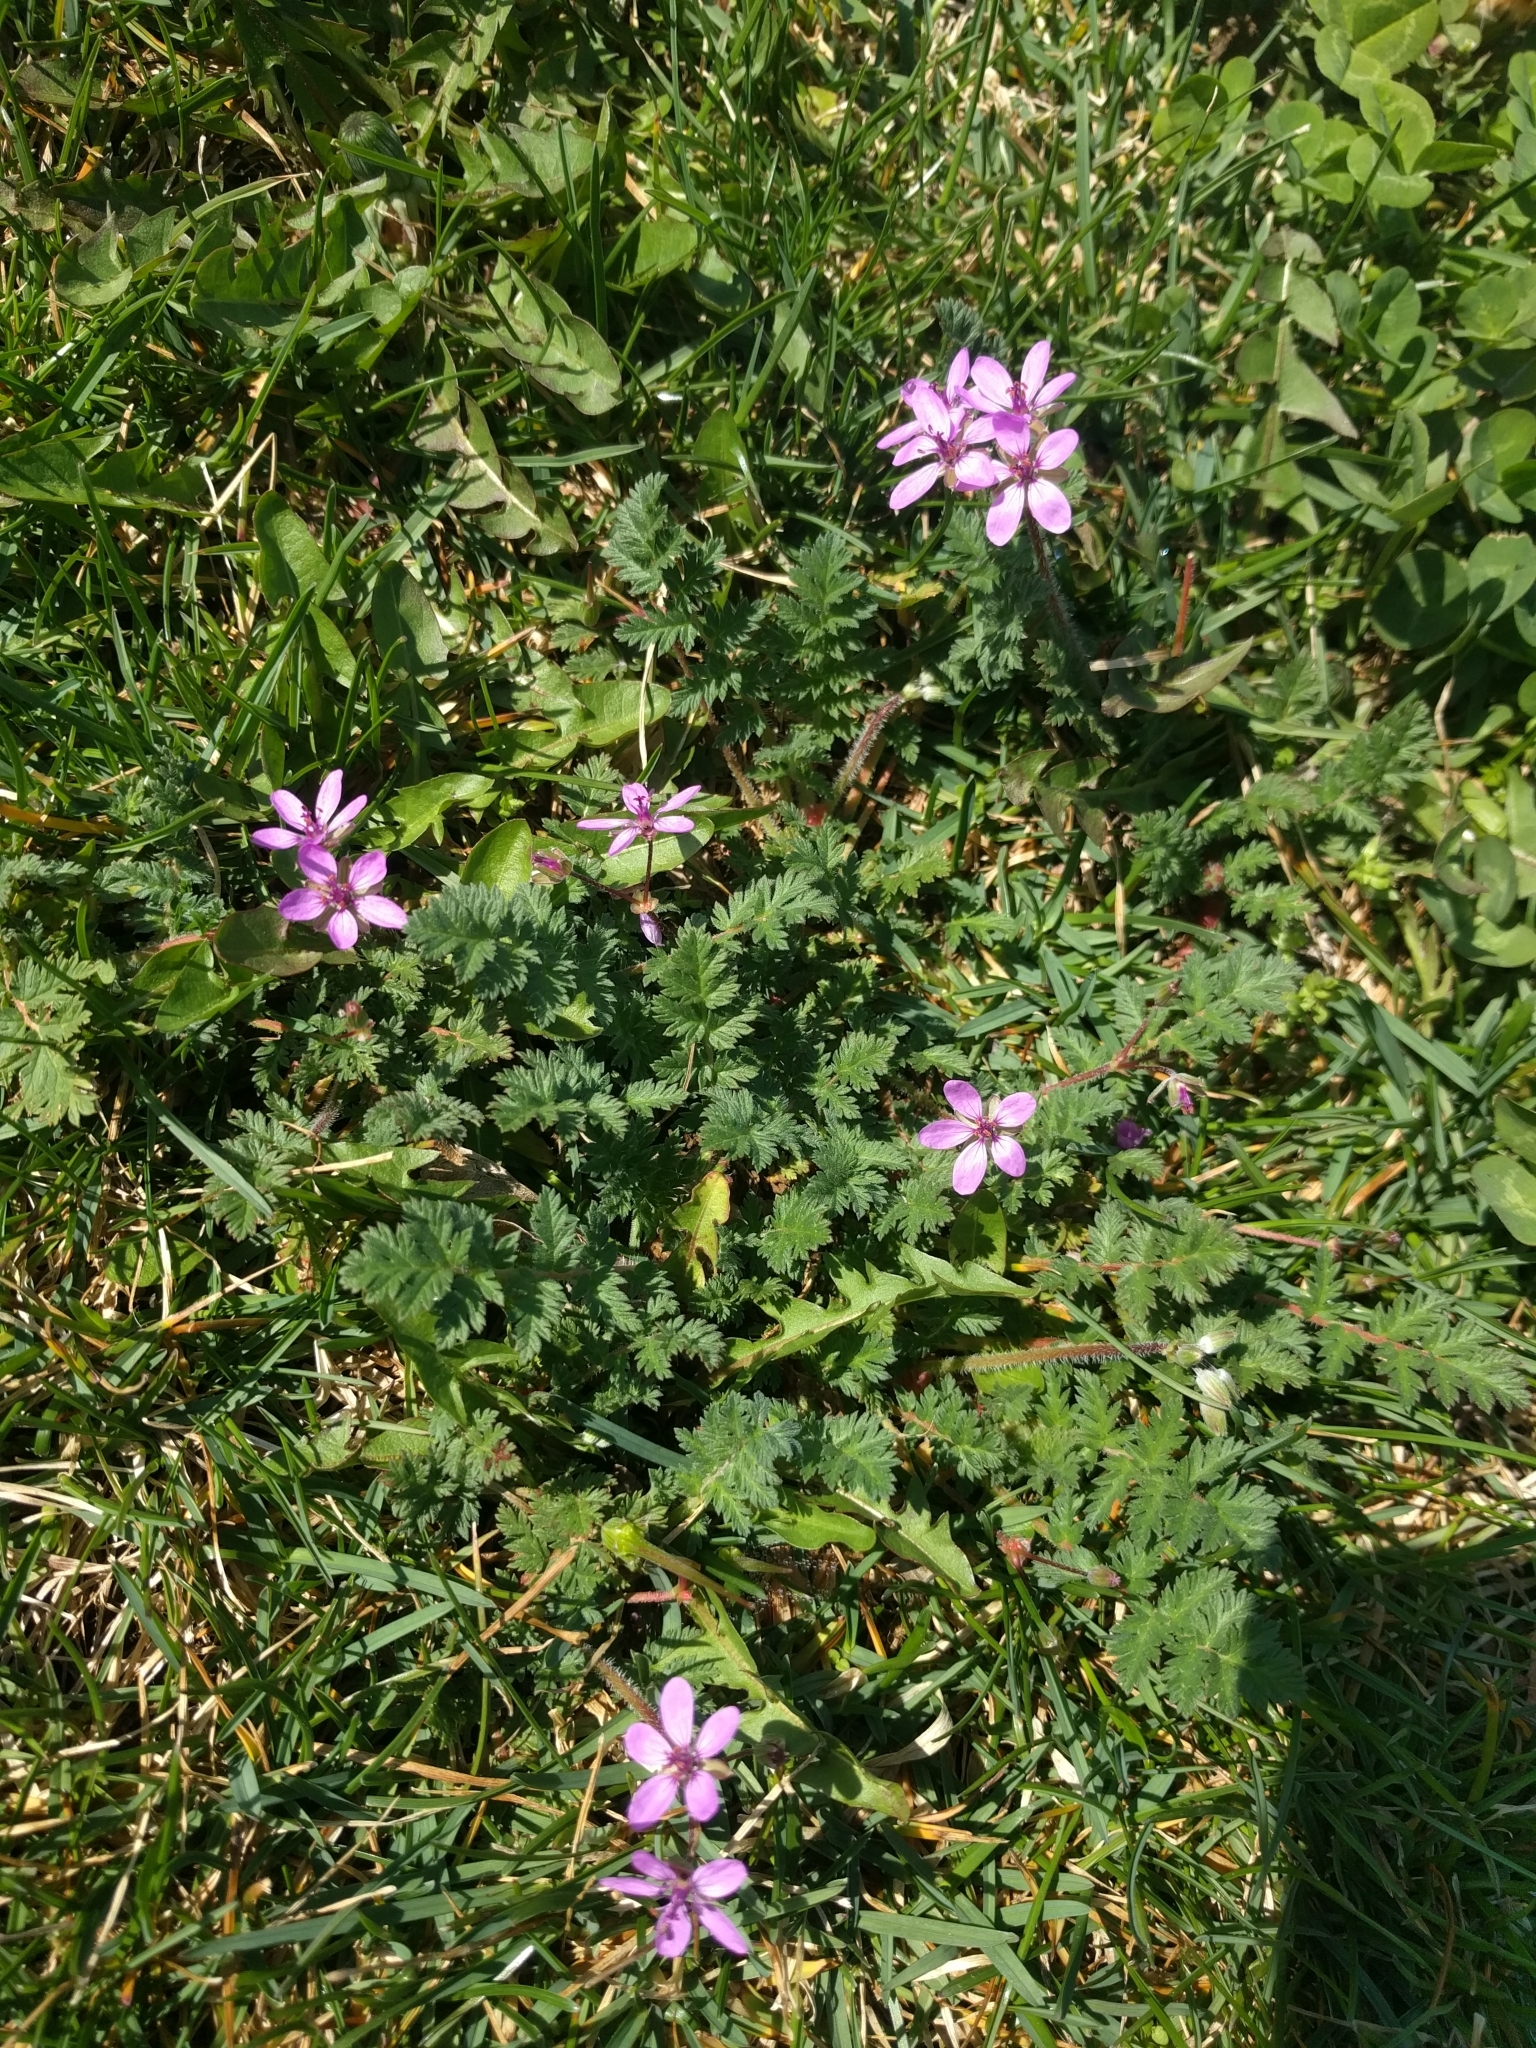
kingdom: Plantae
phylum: Tracheophyta
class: Magnoliopsida
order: Geraniales
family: Geraniaceae
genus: Erodium
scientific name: Erodium cicutarium
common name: Common stork's-bill
